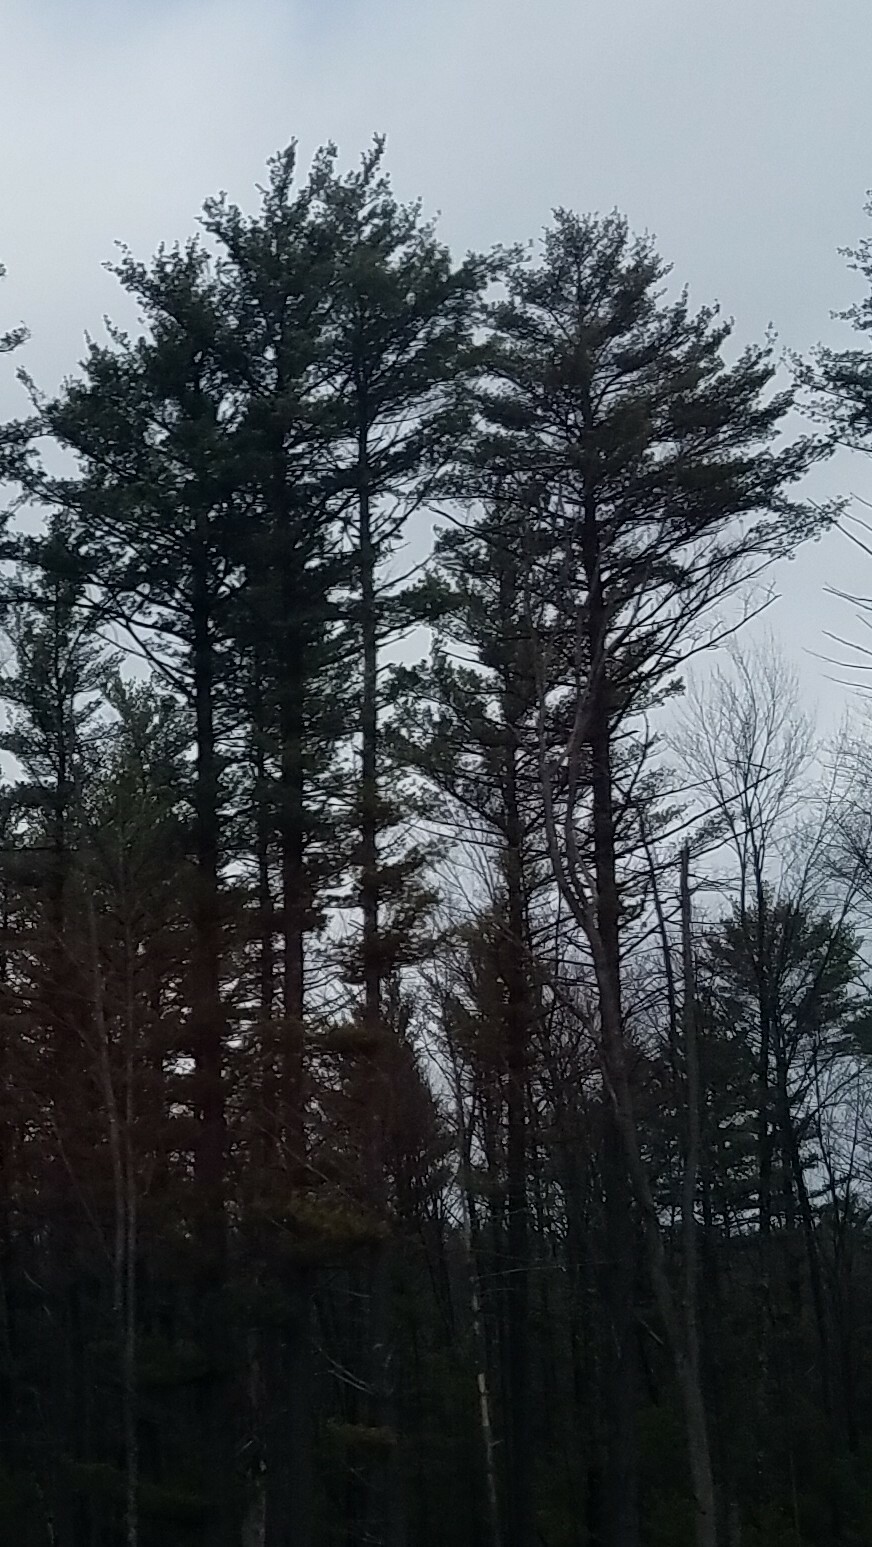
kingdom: Plantae
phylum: Tracheophyta
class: Pinopsida
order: Pinales
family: Pinaceae
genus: Pinus
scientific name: Pinus strobus
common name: Weymouth pine
